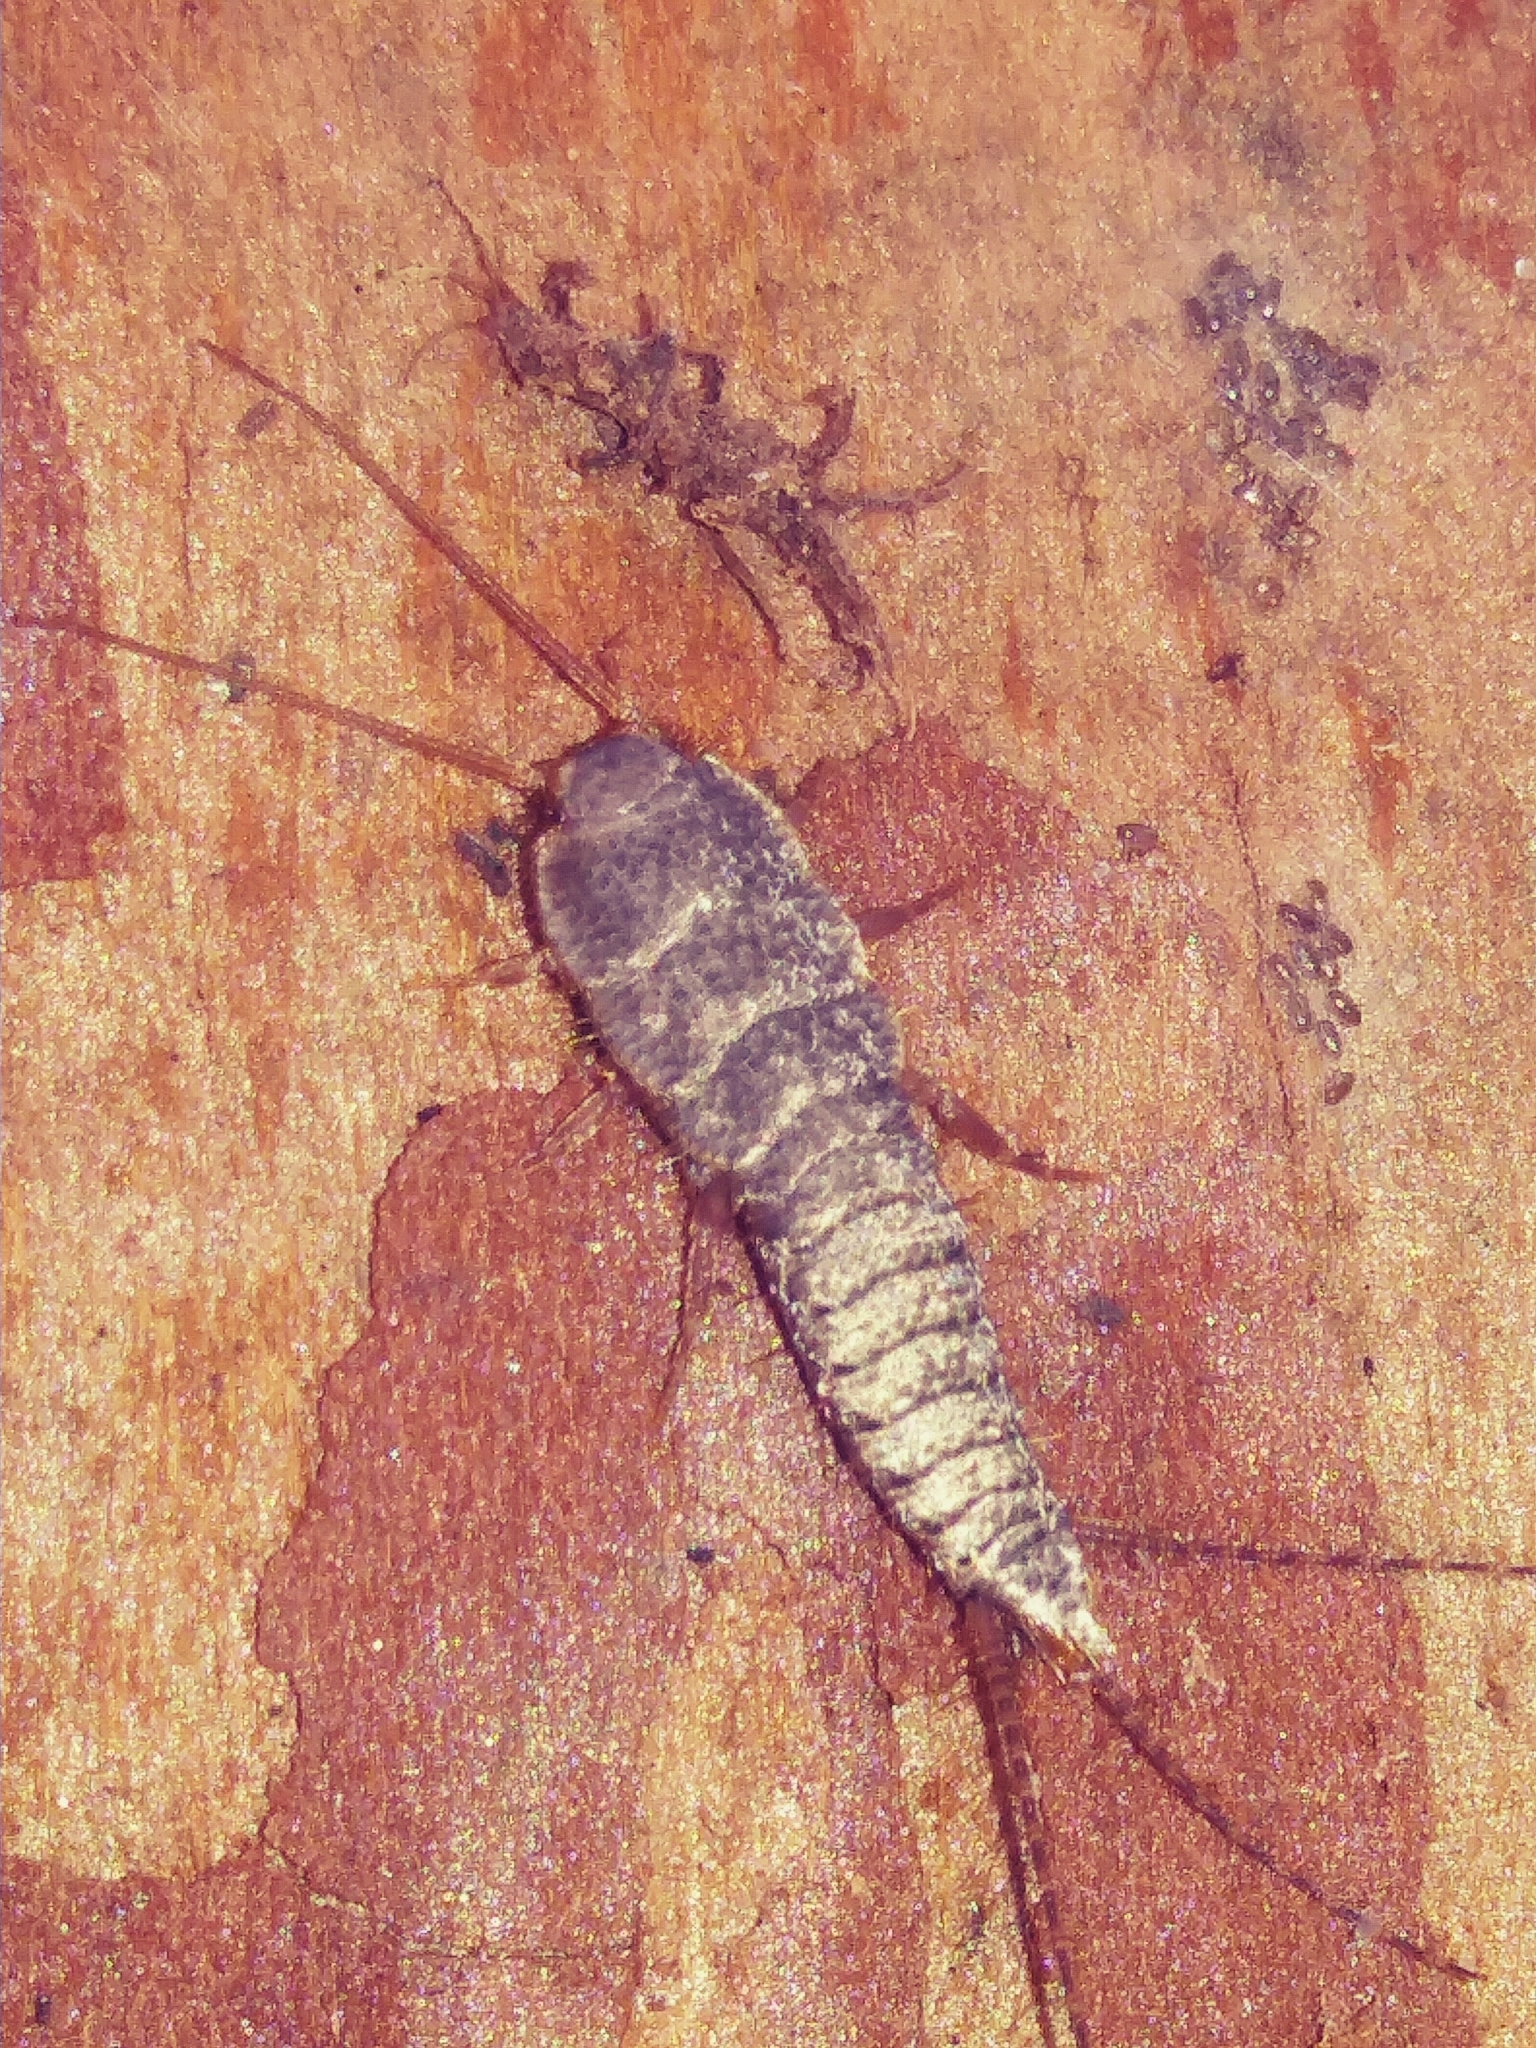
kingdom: Animalia
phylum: Arthropoda
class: Insecta
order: Zygentoma
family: Lepismatidae
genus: Allacrotelsa
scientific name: Allacrotelsa spinulata
